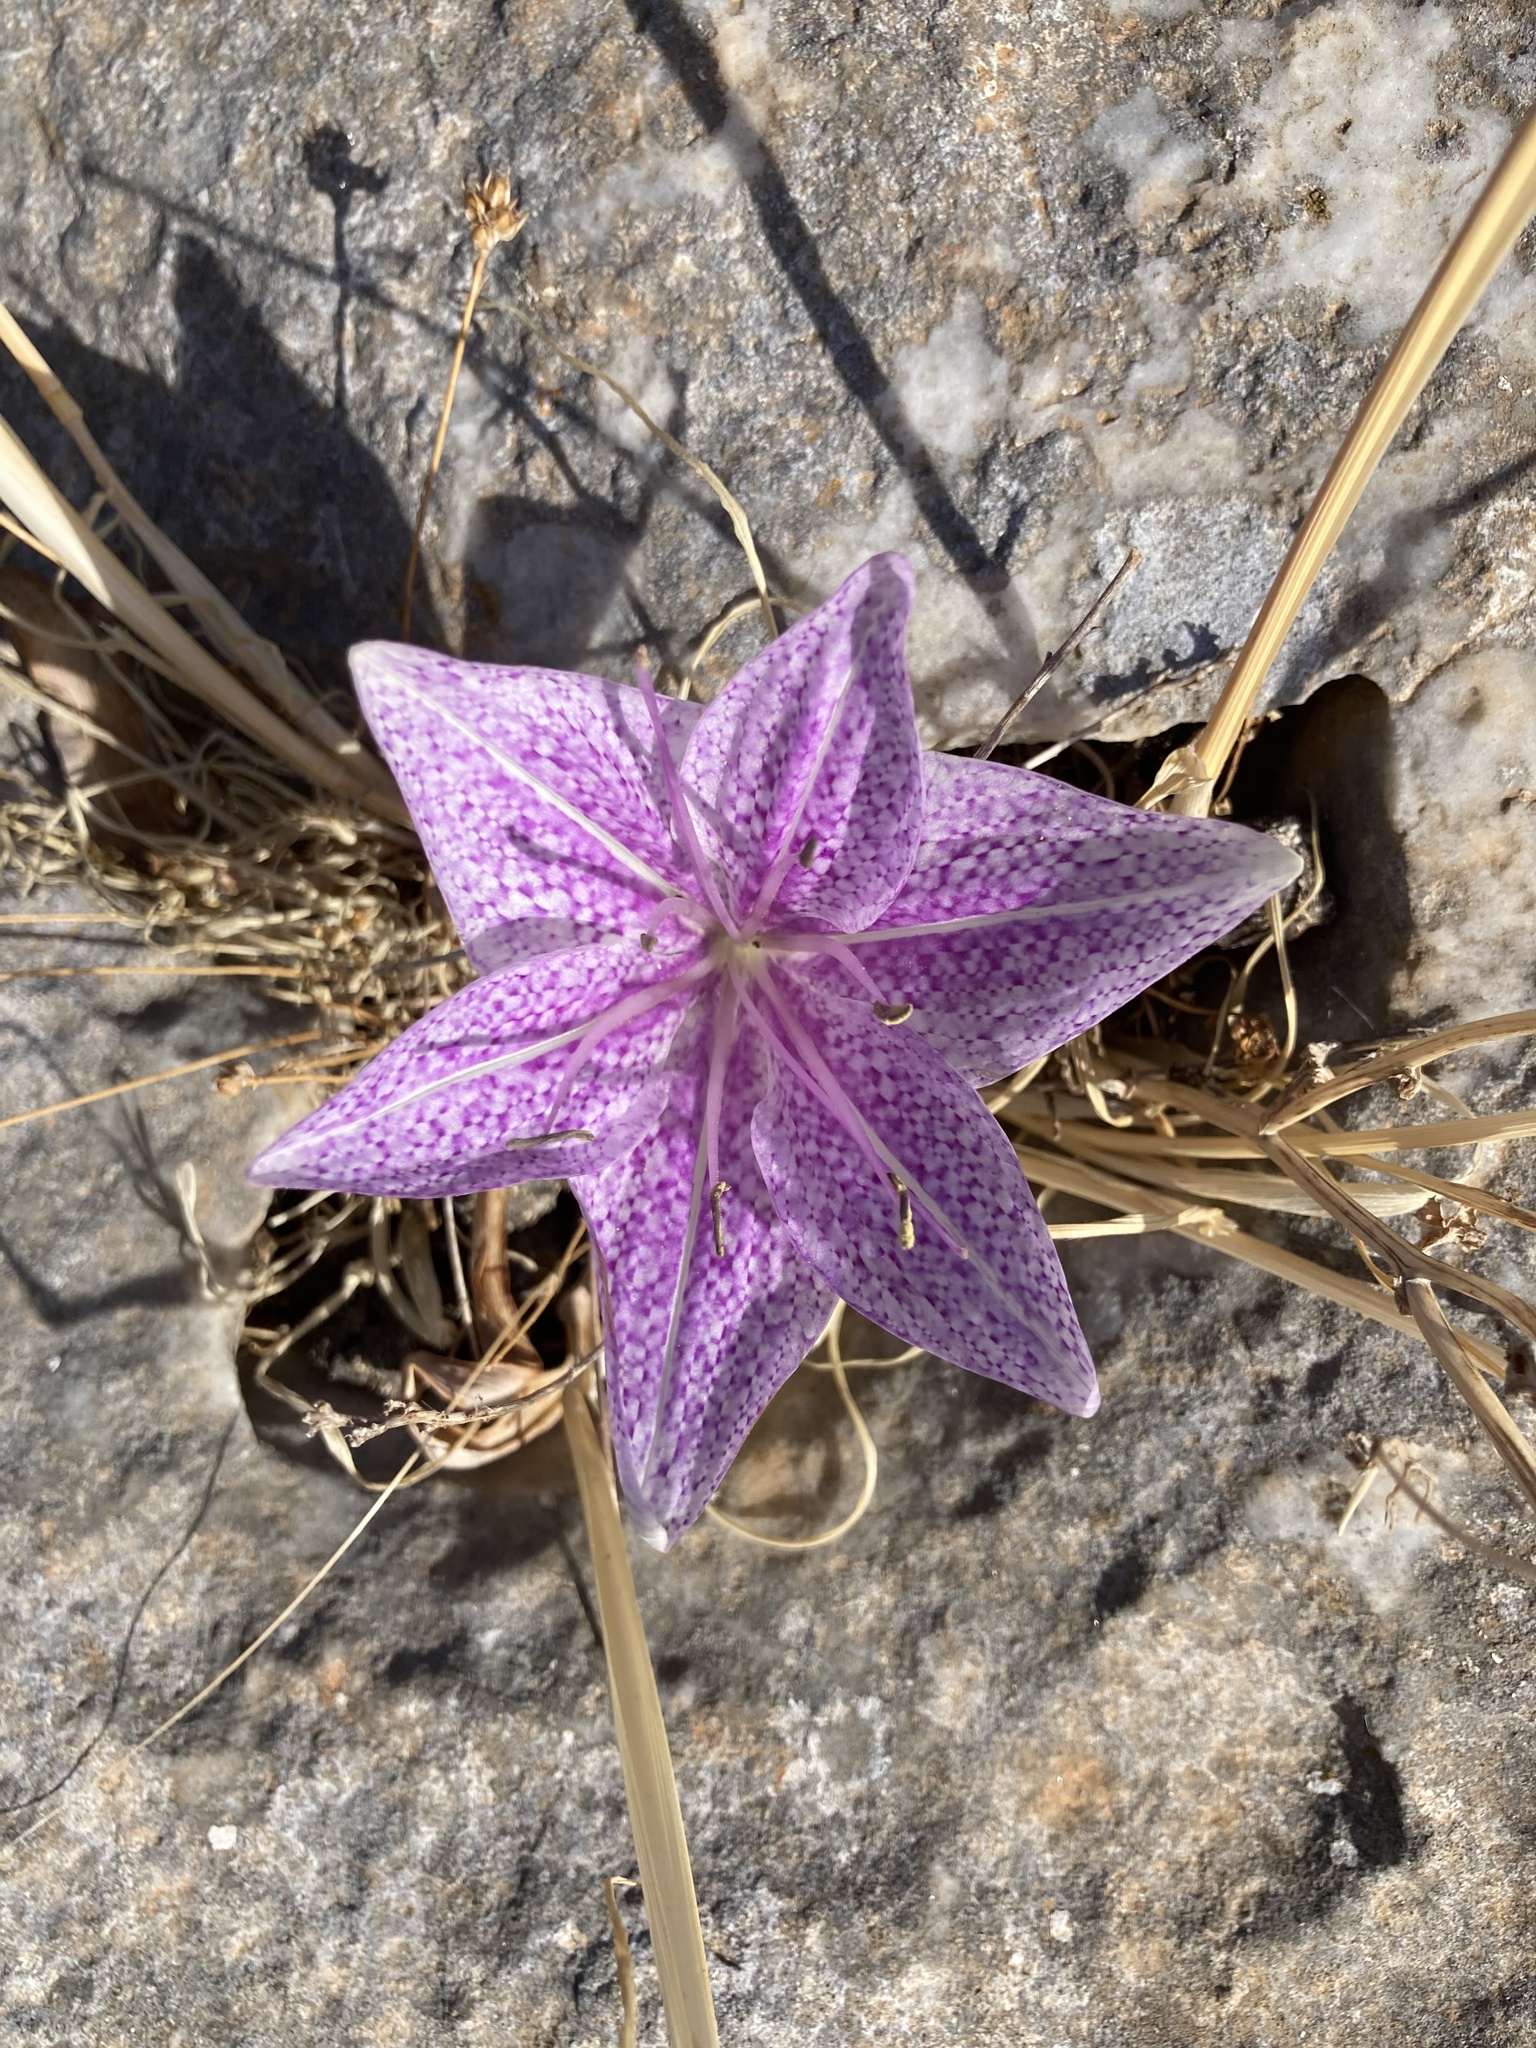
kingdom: Plantae
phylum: Tracheophyta
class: Liliopsida
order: Liliales
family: Colchicaceae
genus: Colchicum
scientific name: Colchicum variegatum
